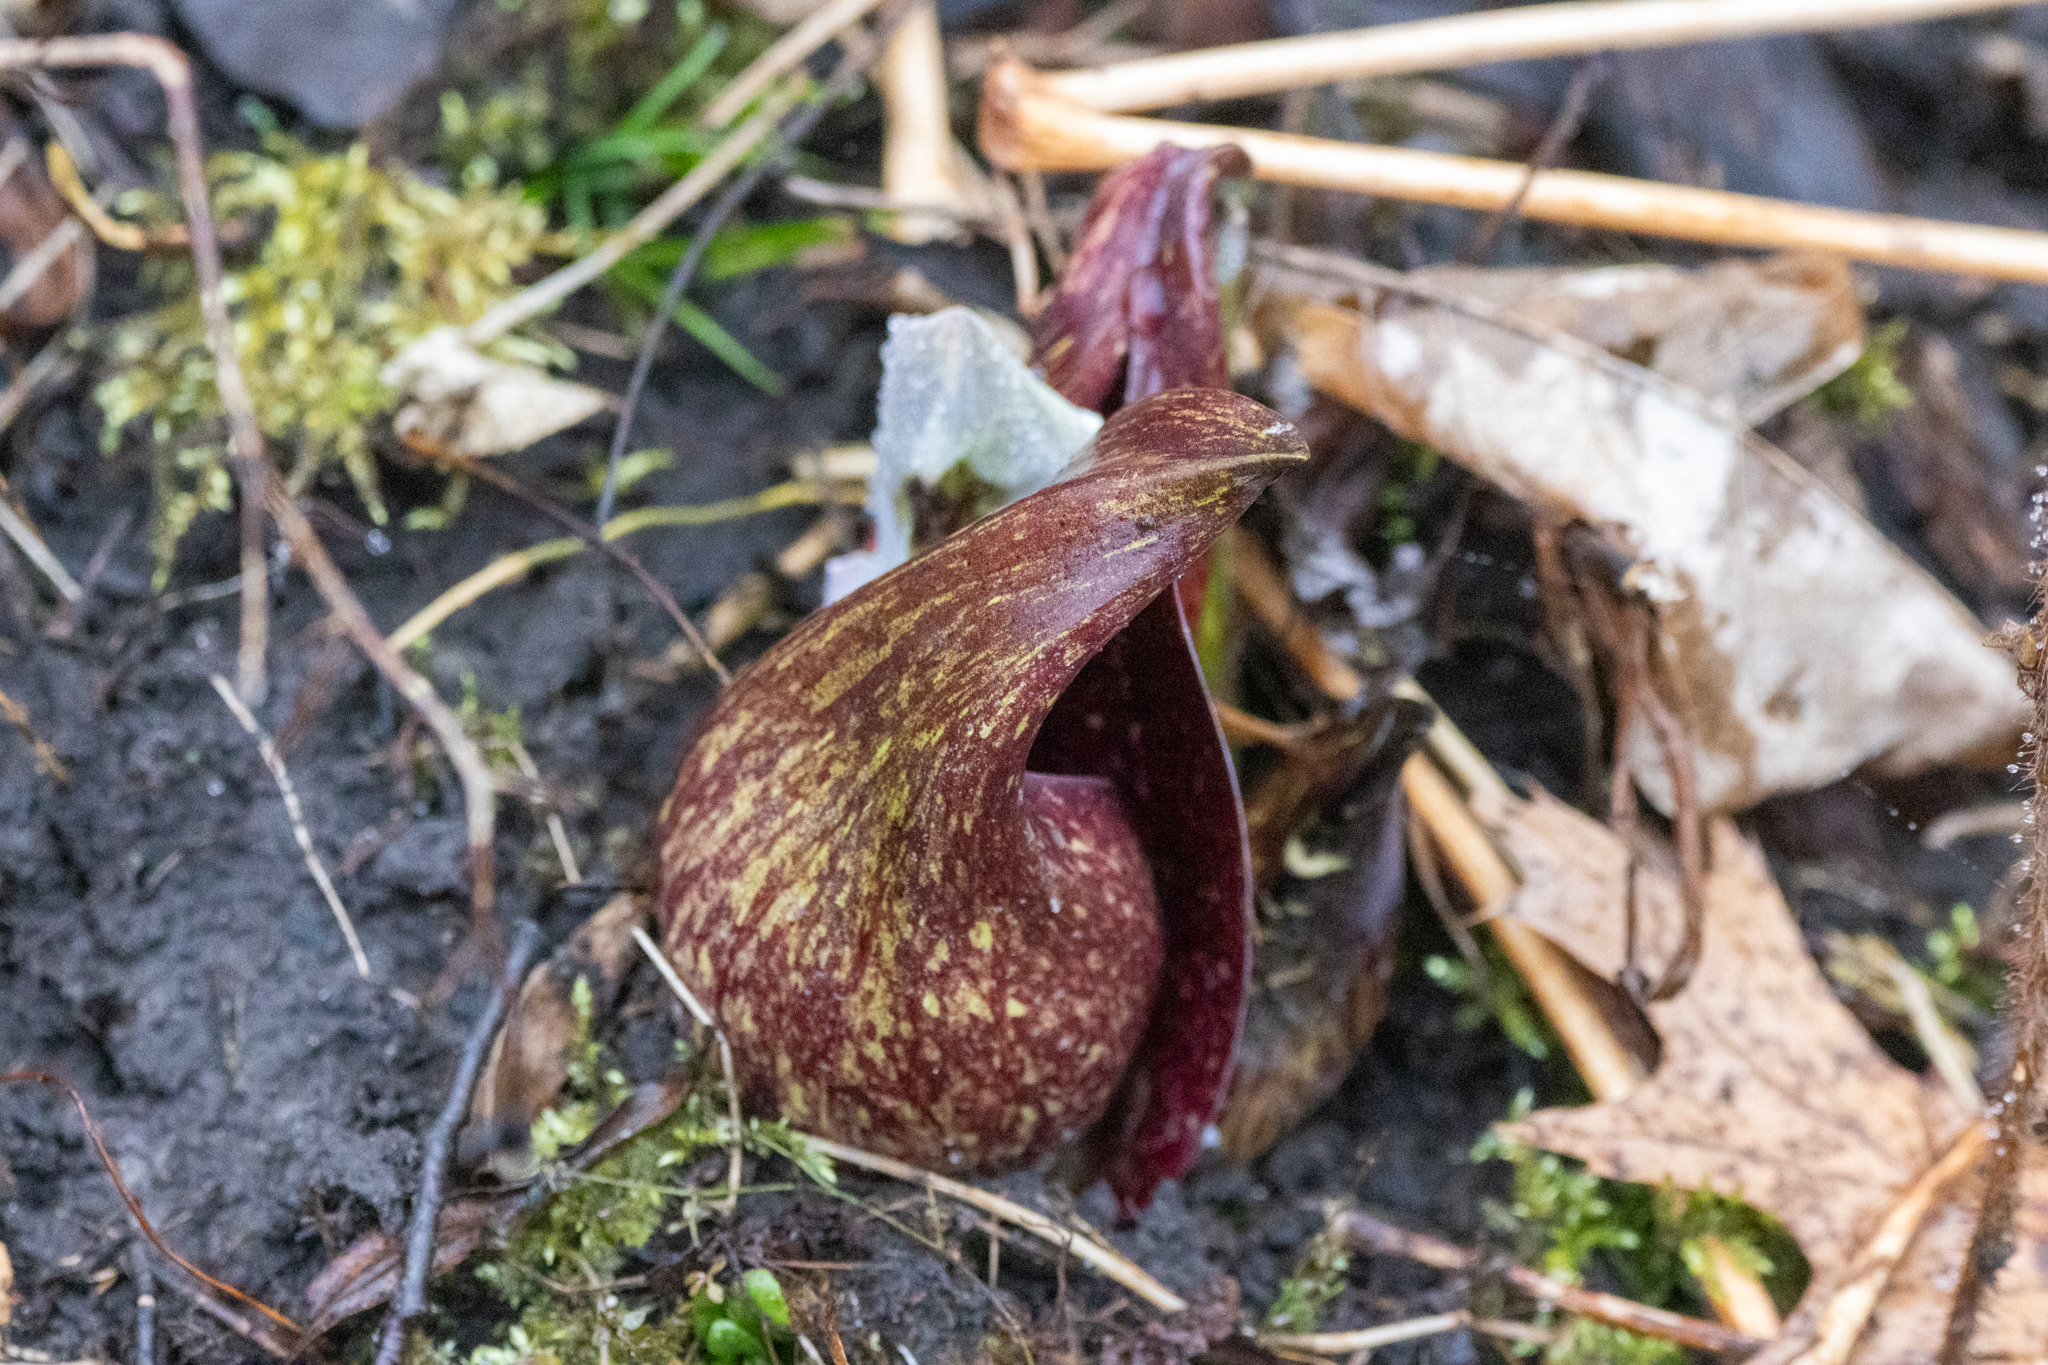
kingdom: Plantae
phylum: Tracheophyta
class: Liliopsida
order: Alismatales
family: Araceae
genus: Symplocarpus
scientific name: Symplocarpus foetidus
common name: Eastern skunk cabbage
